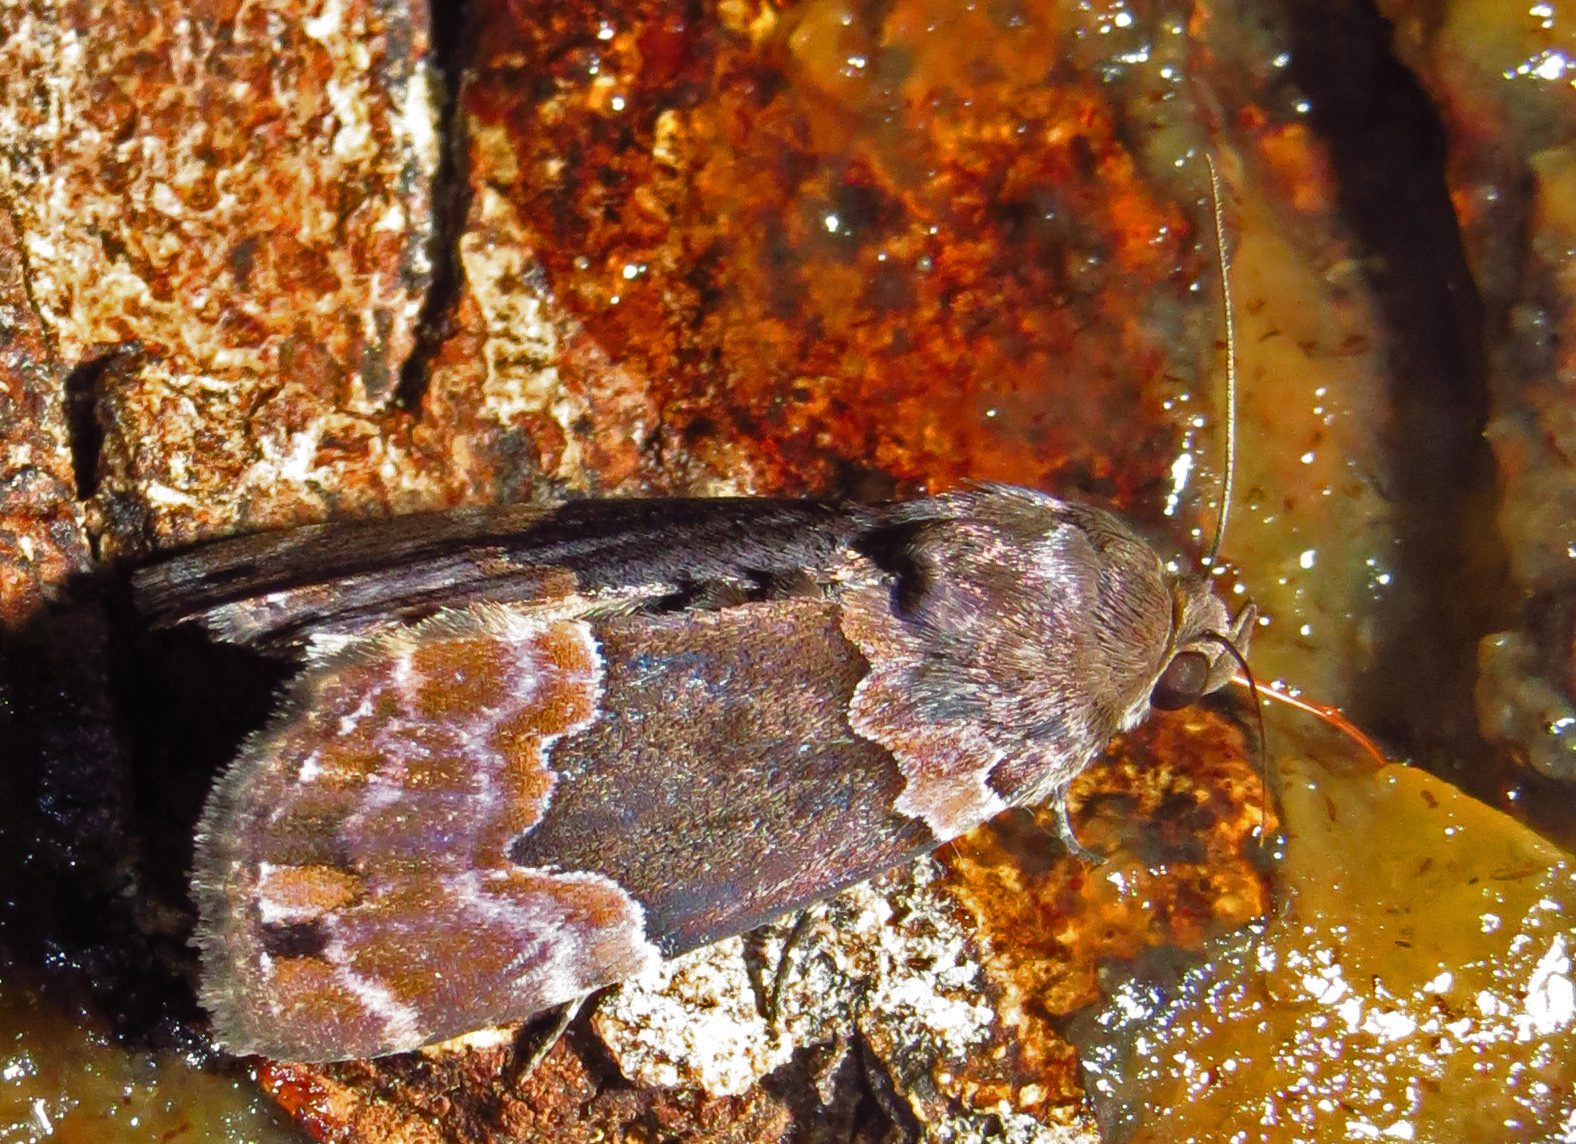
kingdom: Animalia
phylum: Arthropoda
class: Insecta
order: Lepidoptera
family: Erebidae
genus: Dinumma
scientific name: Dinumma deponens
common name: Purplish moth
